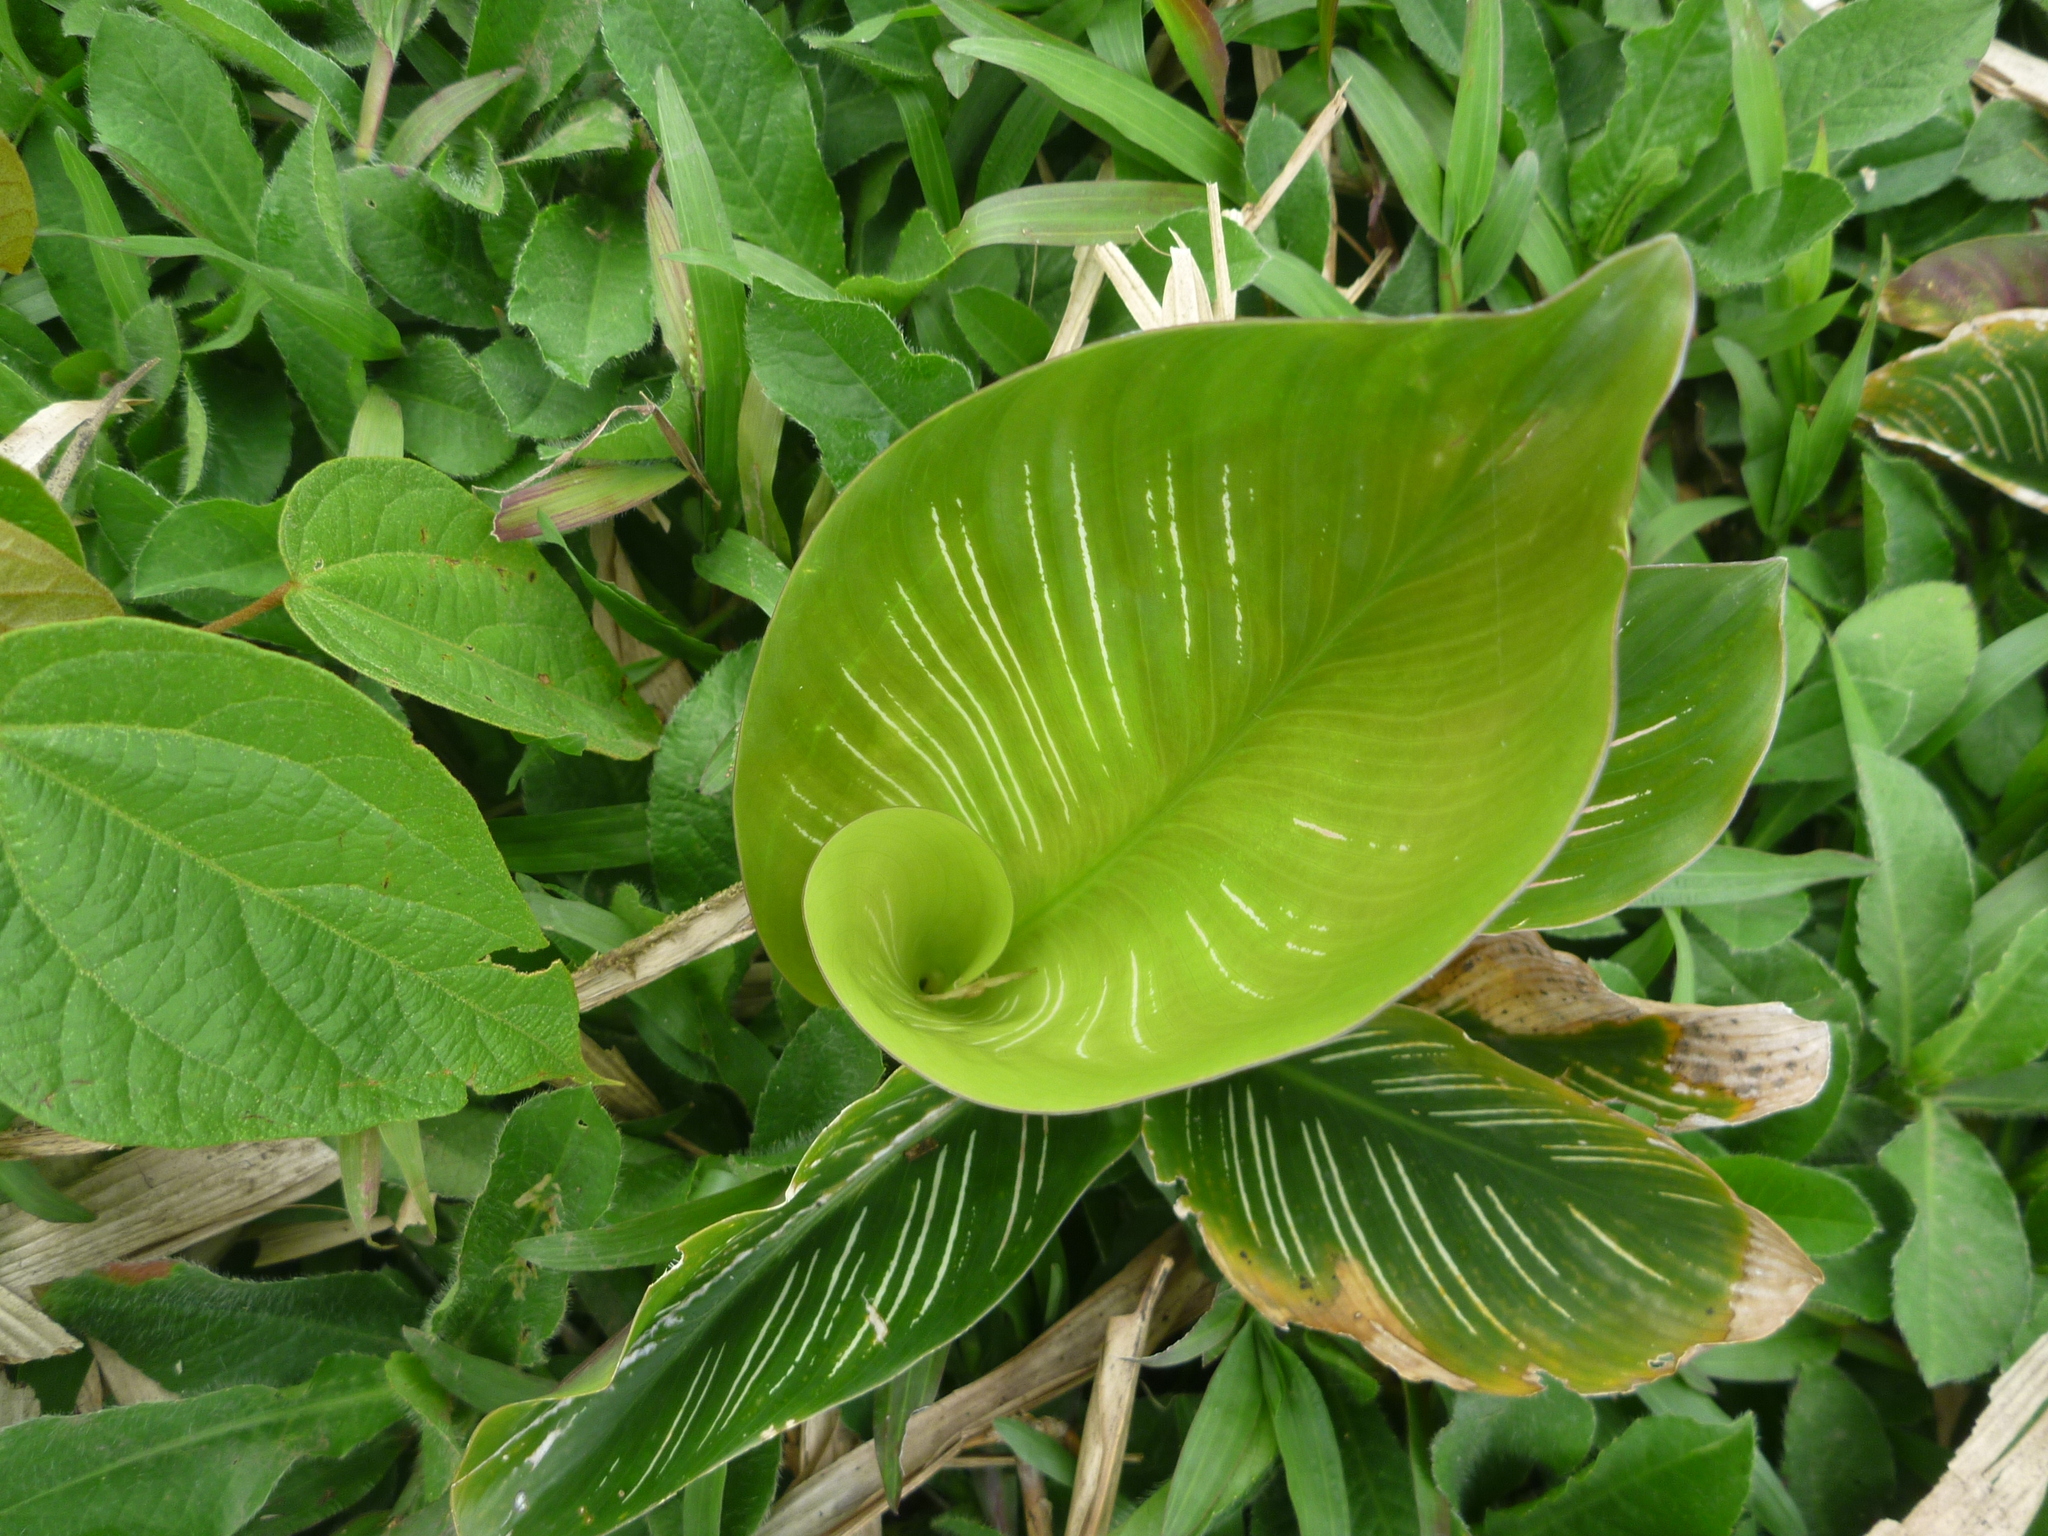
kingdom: Plantae
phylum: Tracheophyta
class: Liliopsida
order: Zingiberales
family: Marantaceae
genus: Goeppertia
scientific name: Goeppertia majestica
